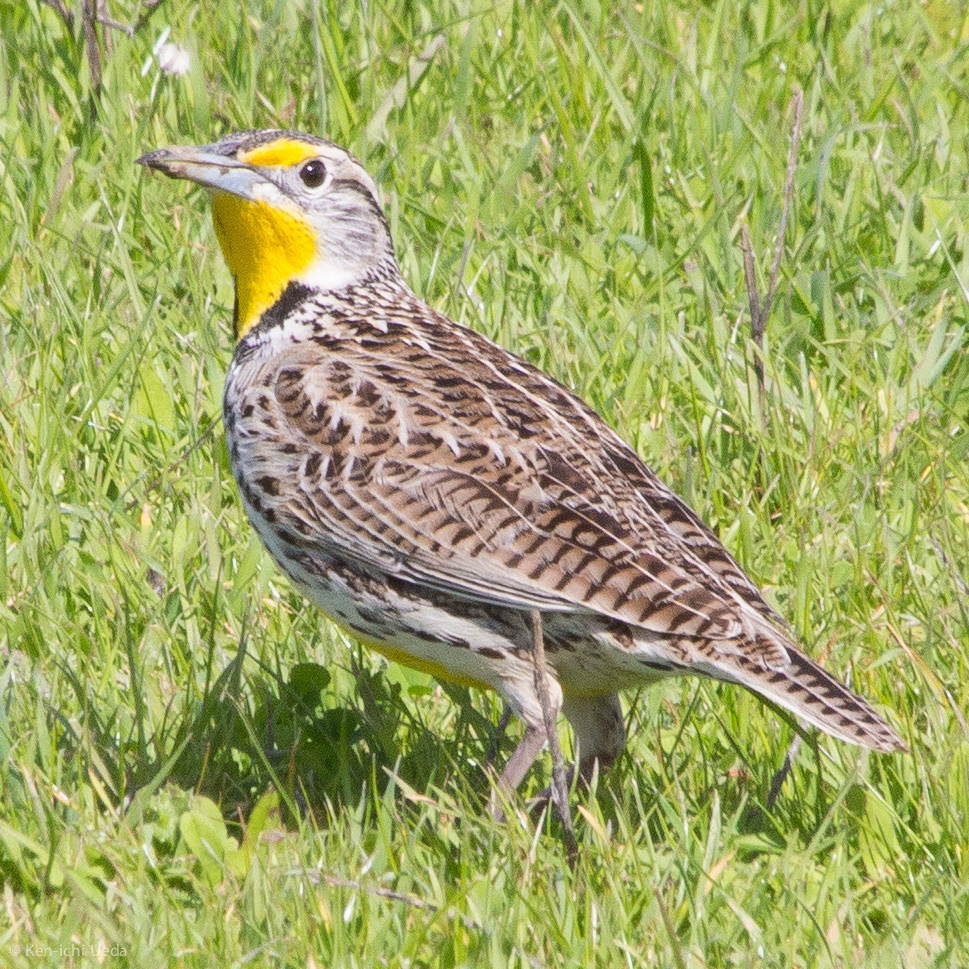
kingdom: Animalia
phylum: Chordata
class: Aves
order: Passeriformes
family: Icteridae
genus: Sturnella
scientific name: Sturnella neglecta
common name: Western meadowlark
